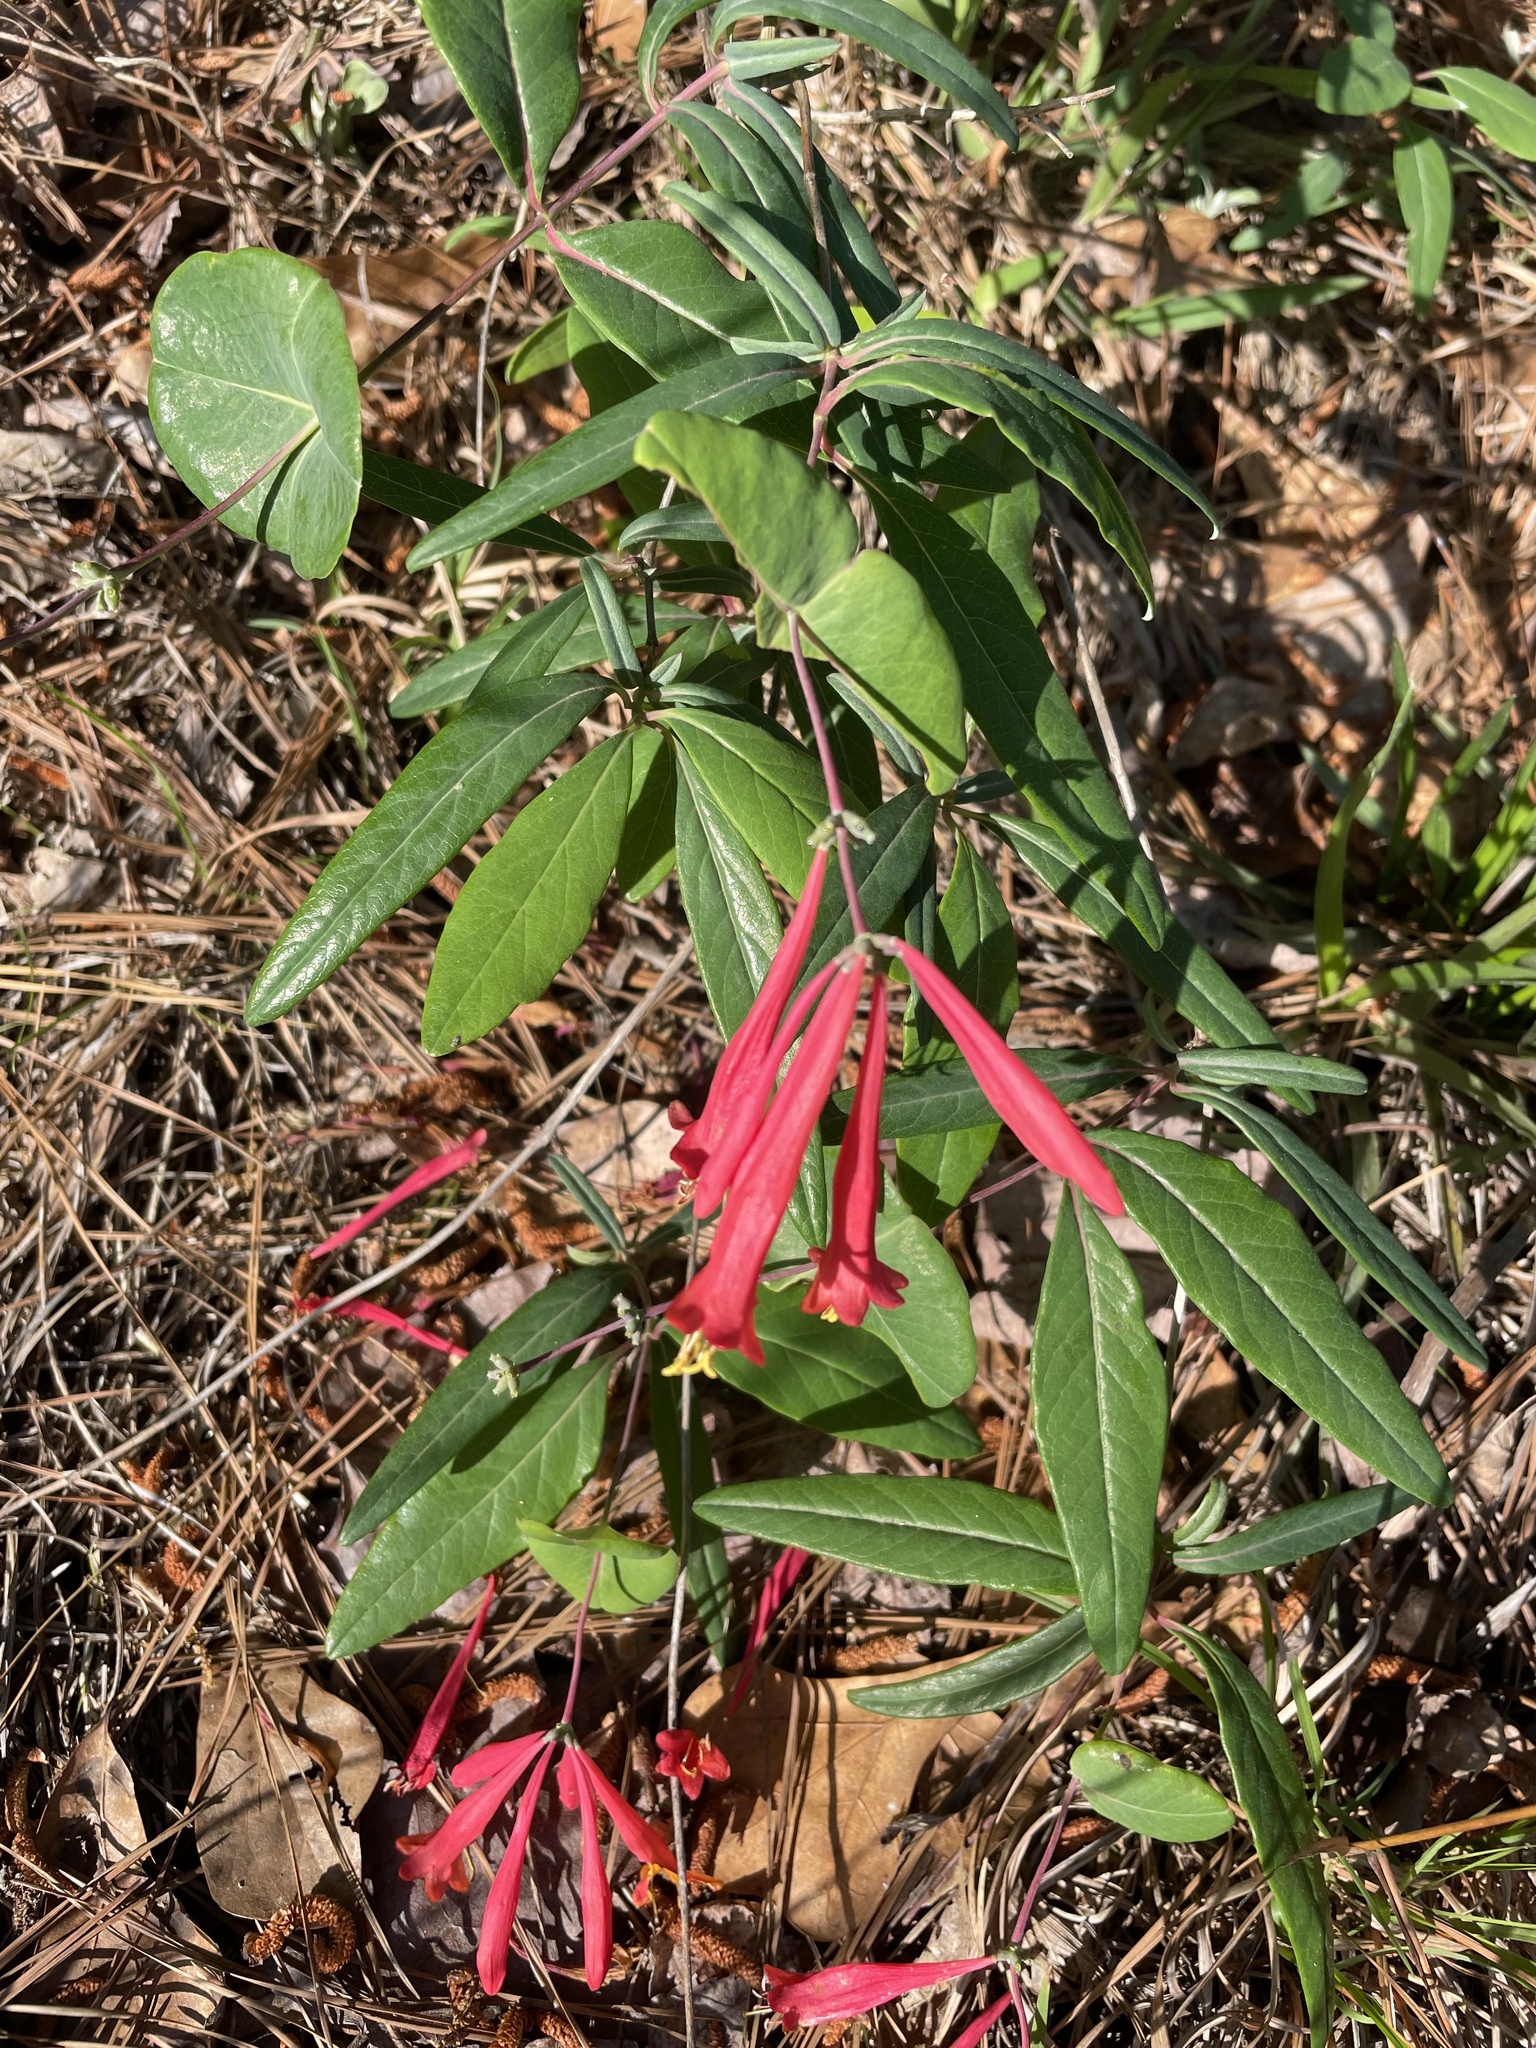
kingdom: Plantae
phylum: Tracheophyta
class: Magnoliopsida
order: Dipsacales
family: Caprifoliaceae
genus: Lonicera
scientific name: Lonicera sempervirens
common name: Coral honeysuckle
